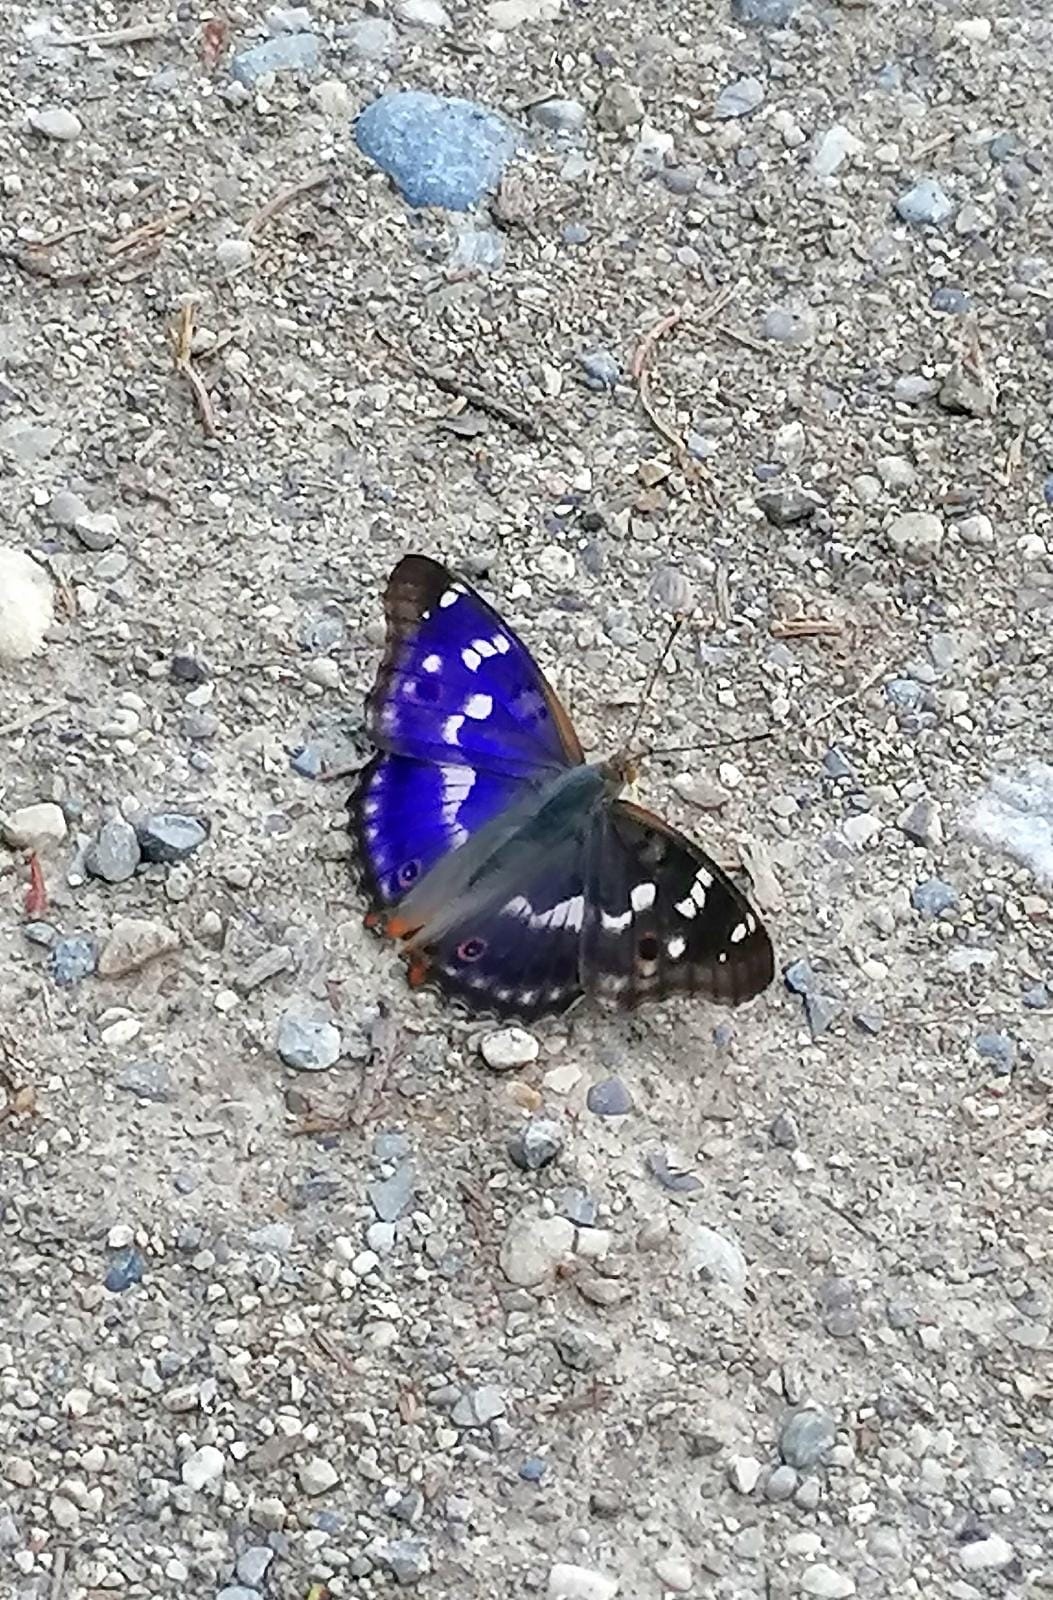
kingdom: Animalia
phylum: Arthropoda
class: Insecta
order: Lepidoptera
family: Nymphalidae
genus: Apatura
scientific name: Apatura ilia
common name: Lesser purple emperor
